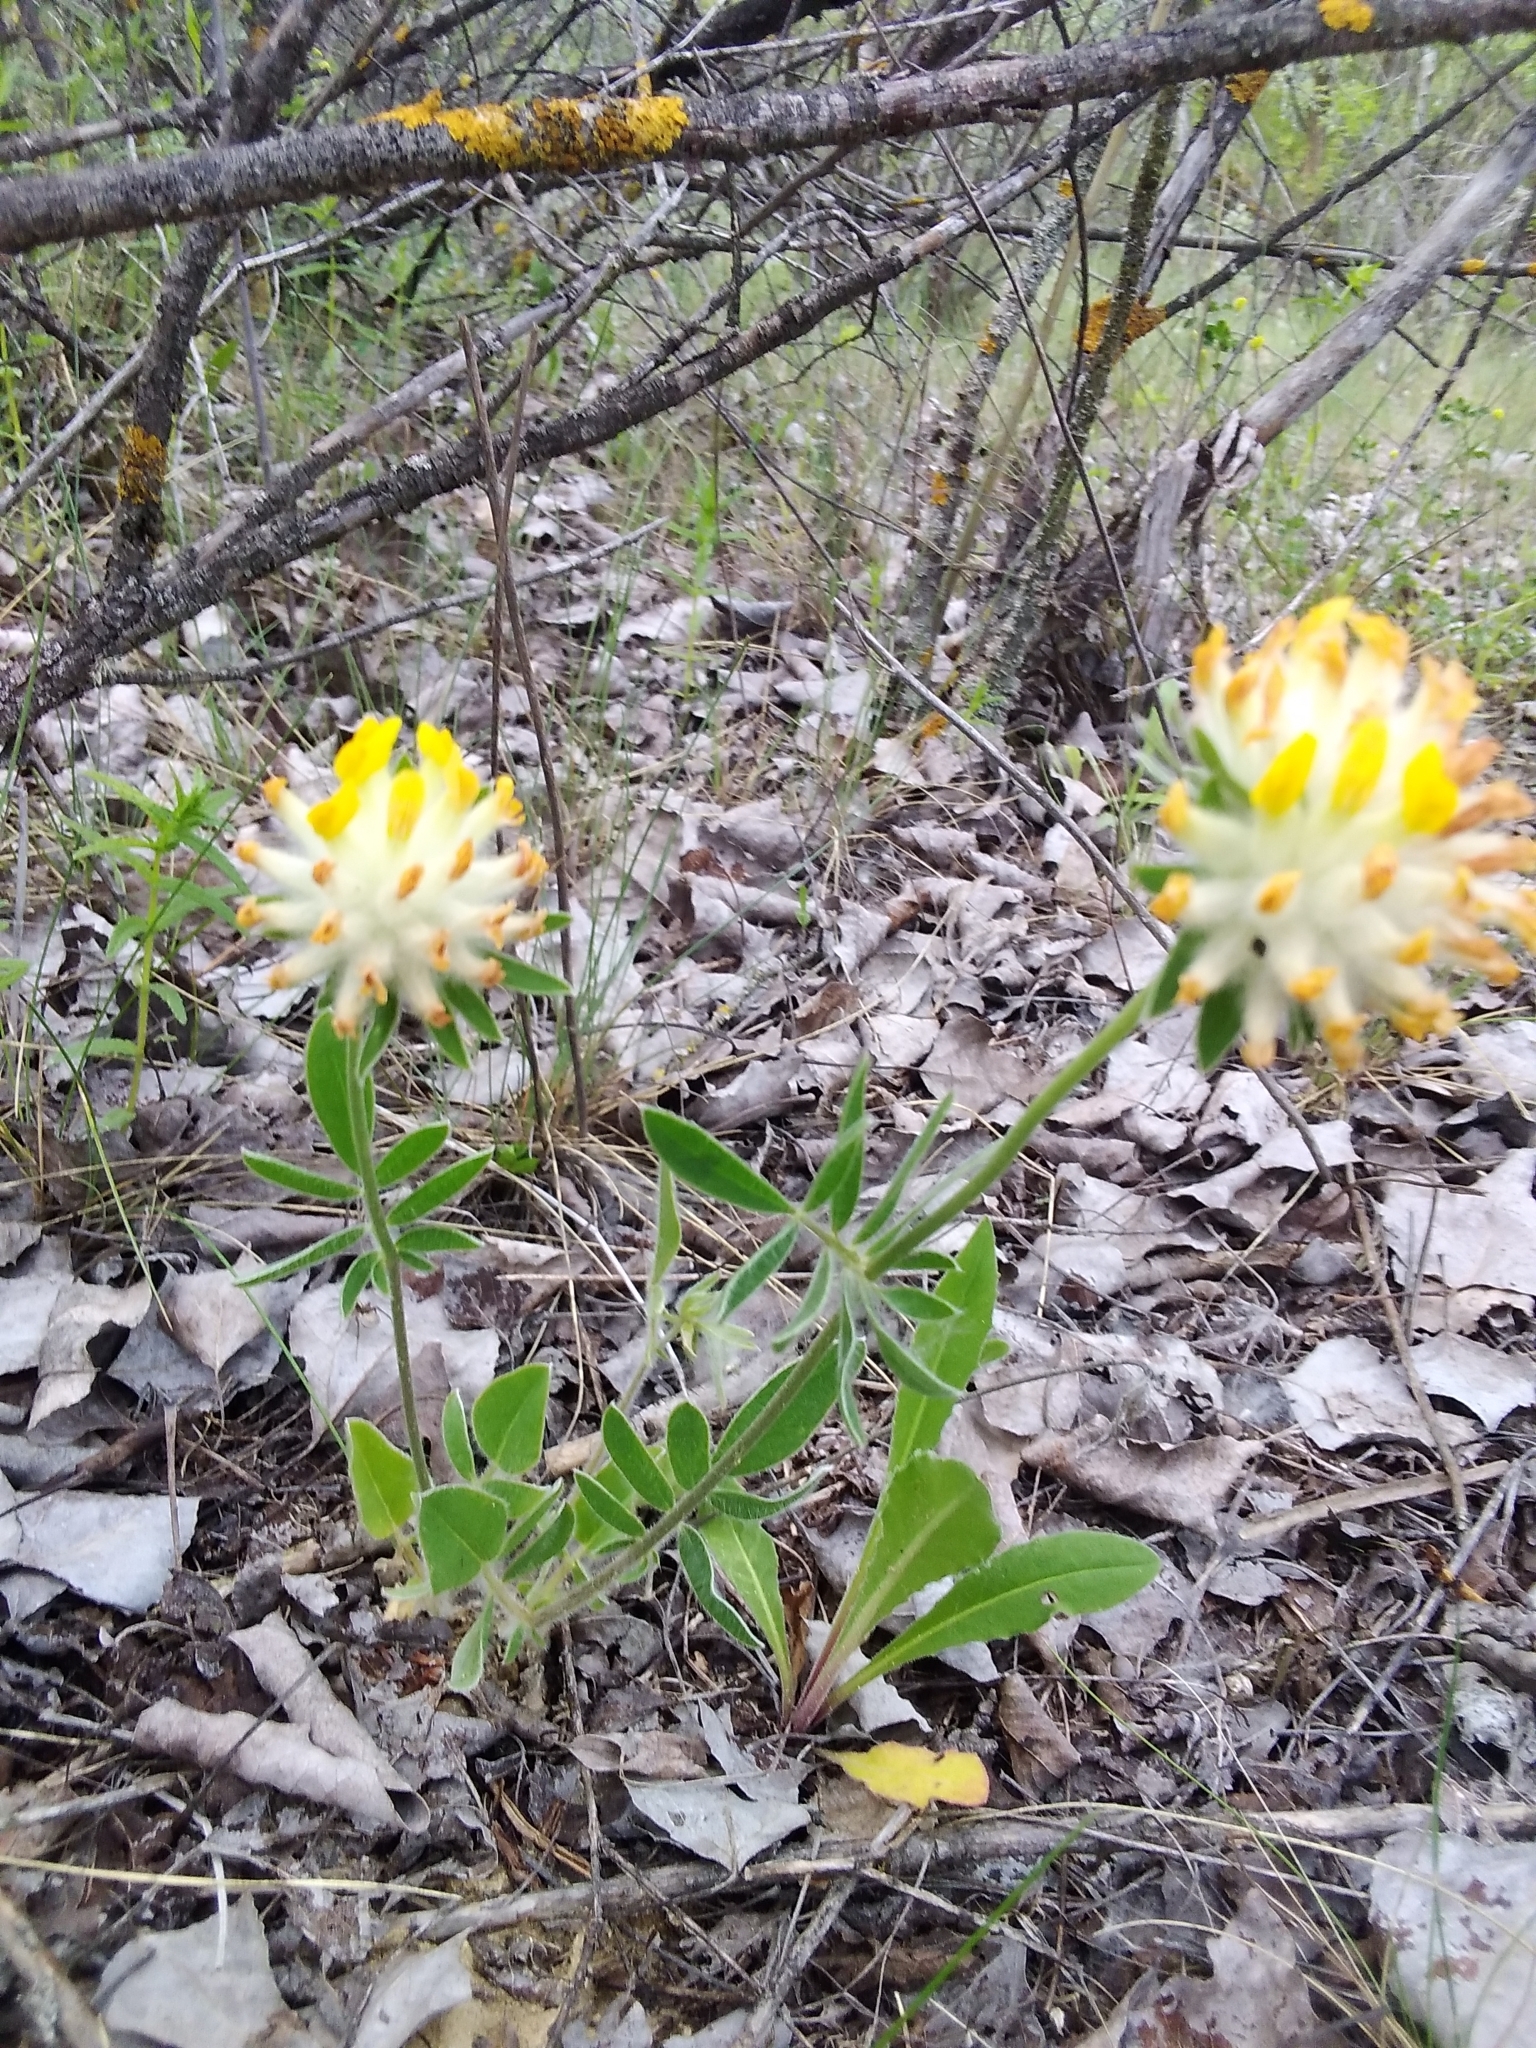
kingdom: Plantae
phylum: Tracheophyta
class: Magnoliopsida
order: Fabales
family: Fabaceae
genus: Anthyllis
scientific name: Anthyllis vulneraria
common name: Kidney vetch
